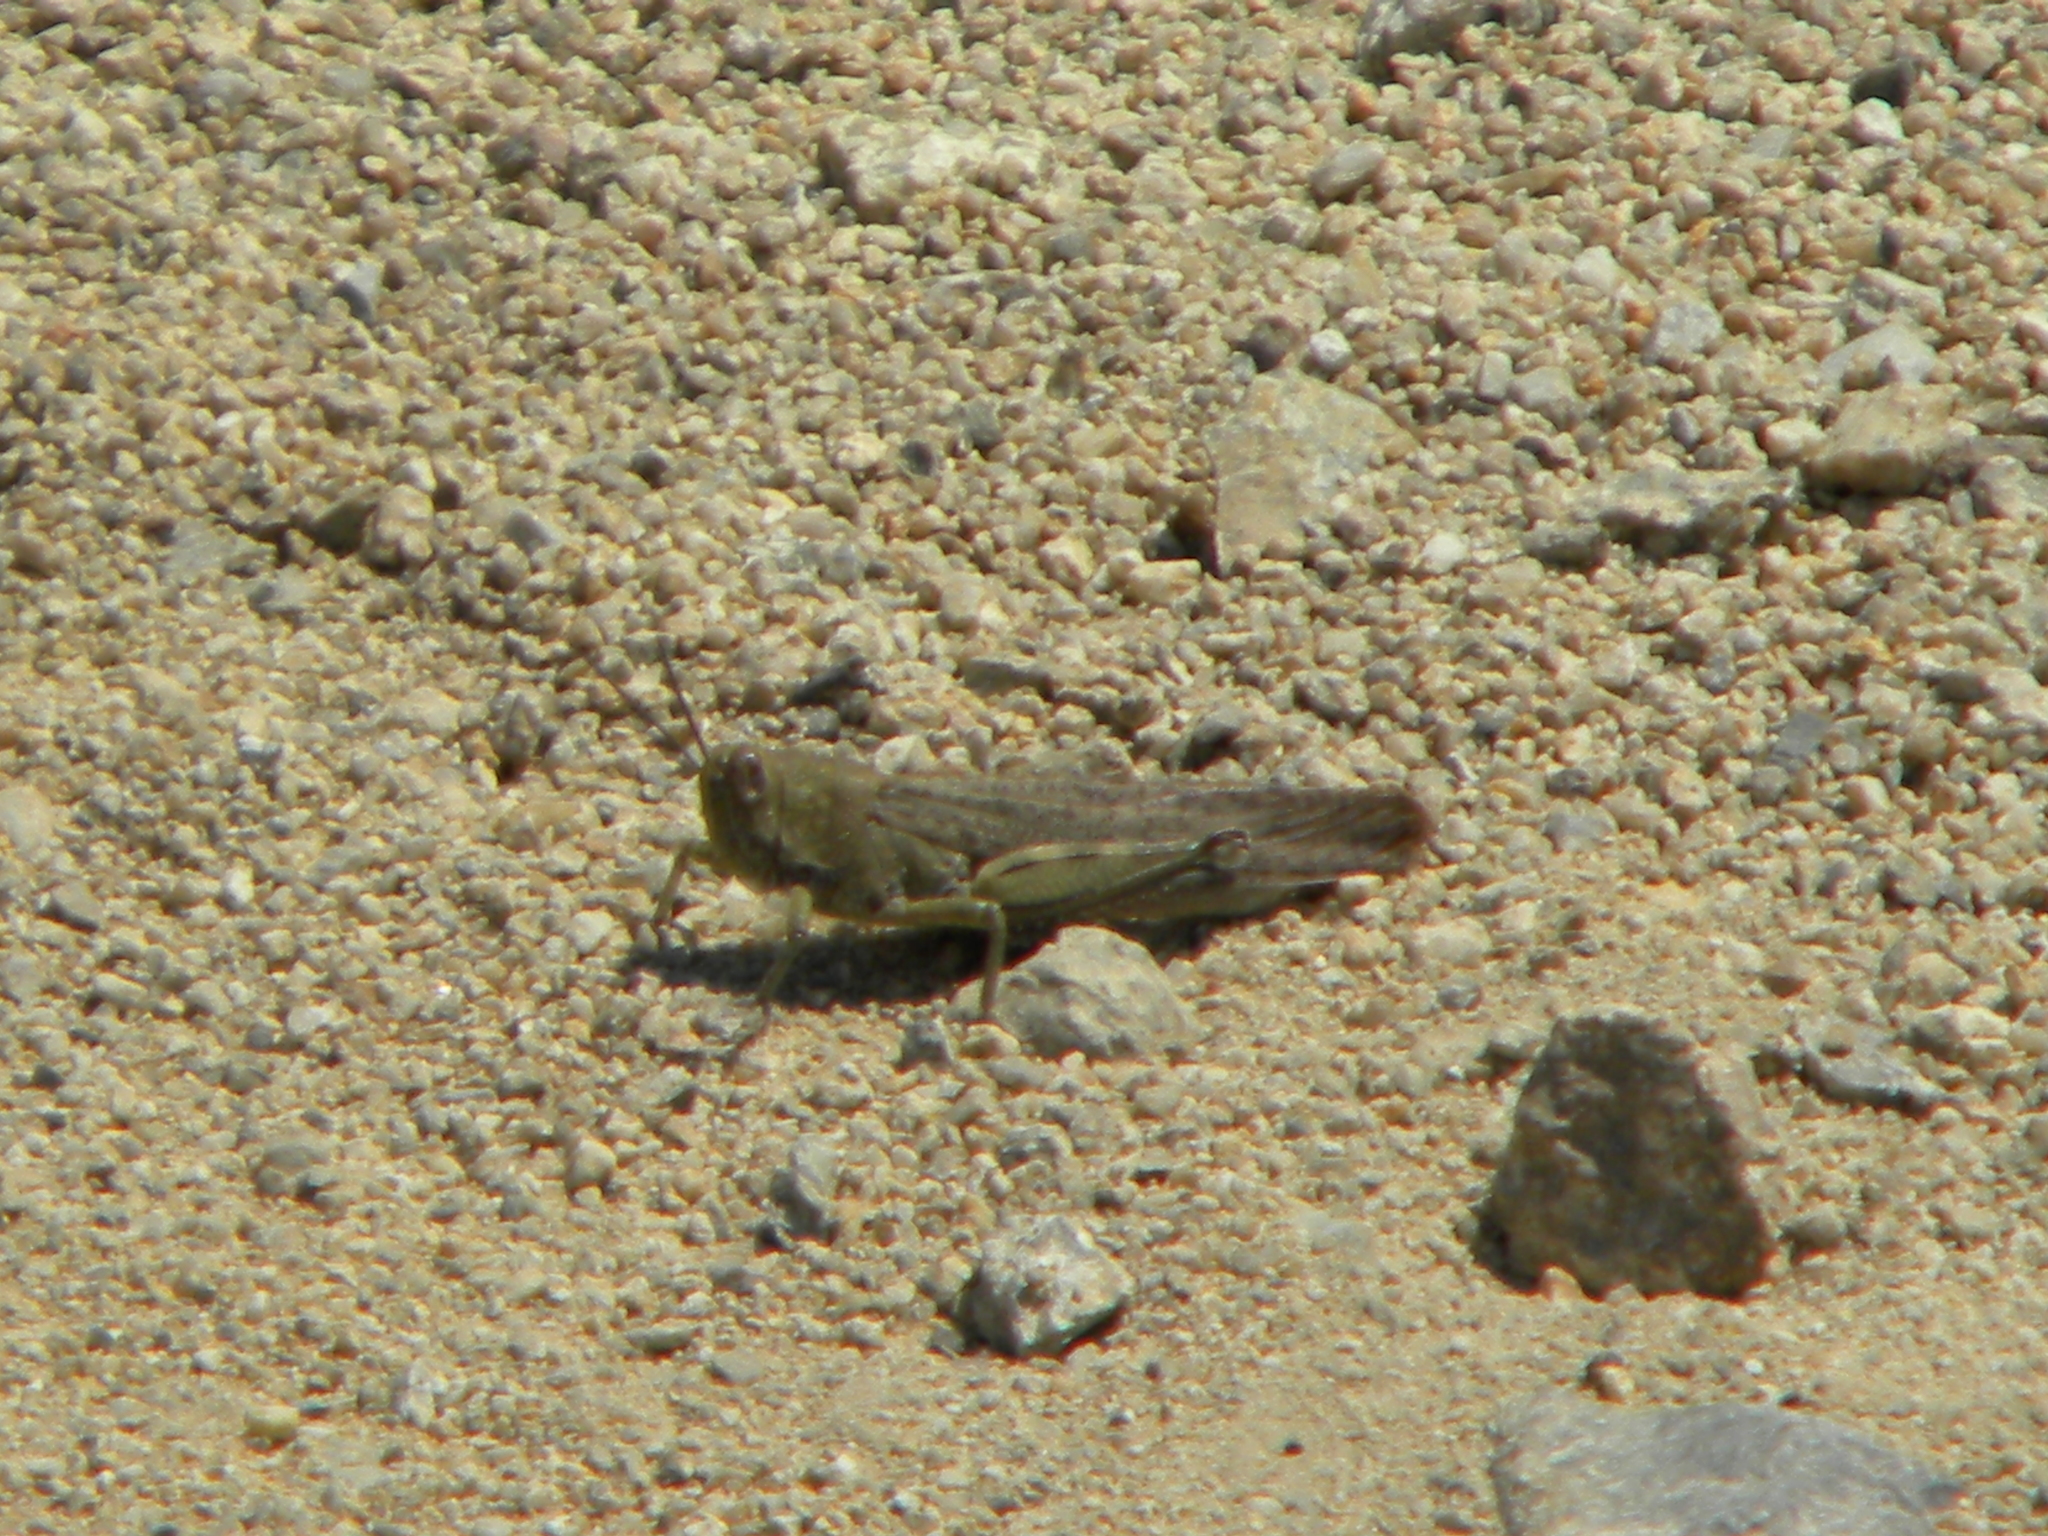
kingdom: Animalia
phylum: Arthropoda
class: Insecta
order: Orthoptera
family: Acrididae
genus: Anacridium
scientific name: Anacridium aegyptium
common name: Egyptian grasshopper
